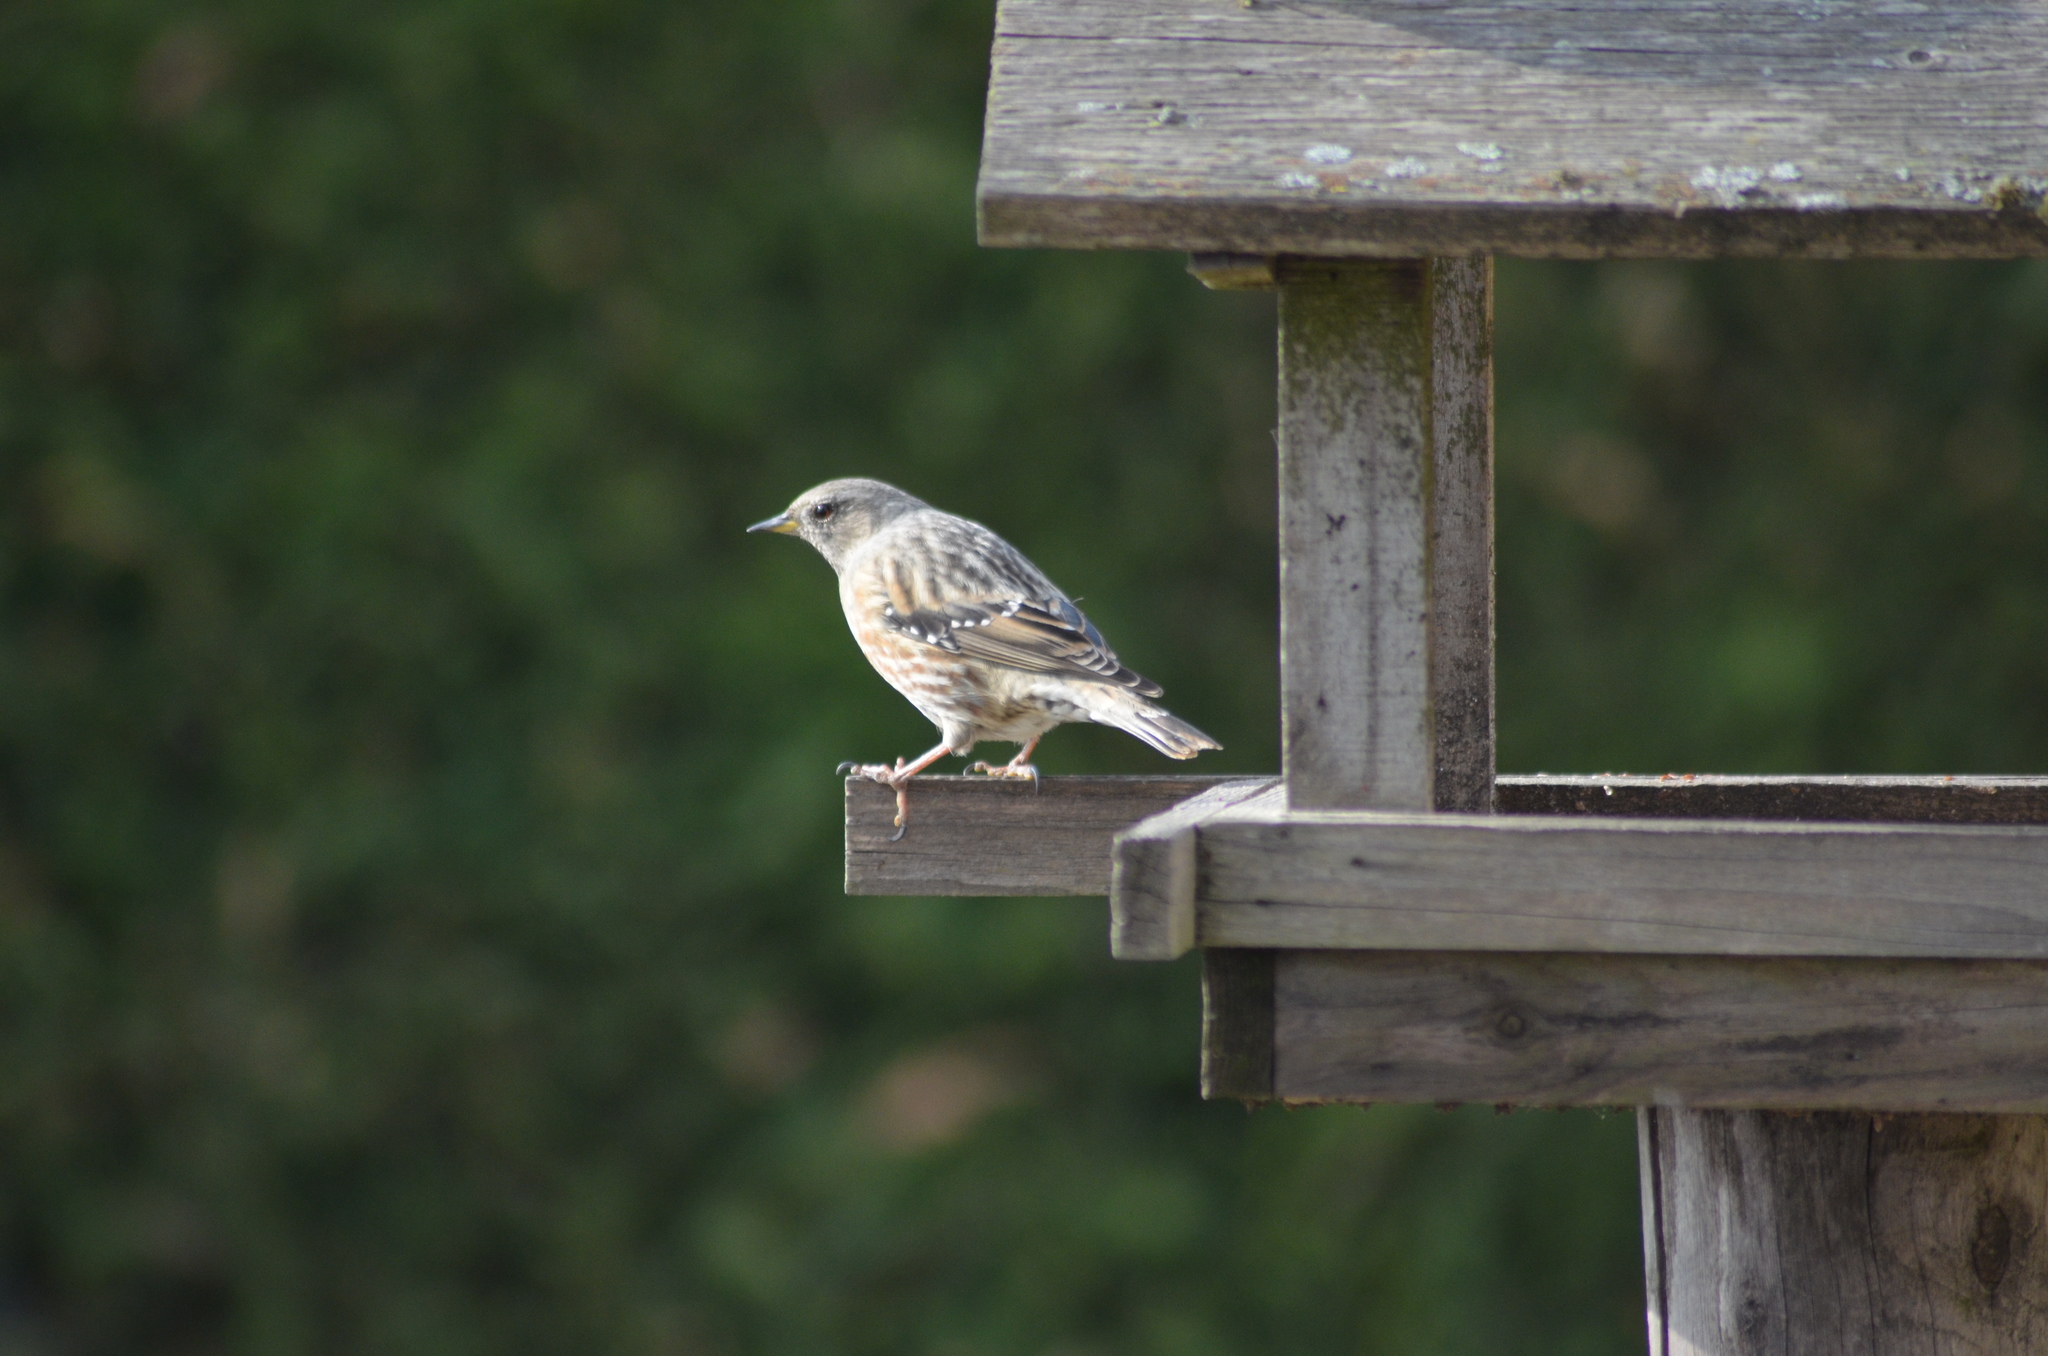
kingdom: Animalia
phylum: Chordata
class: Aves
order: Passeriformes
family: Prunellidae
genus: Prunella
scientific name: Prunella collaris
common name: Alpine accentor
